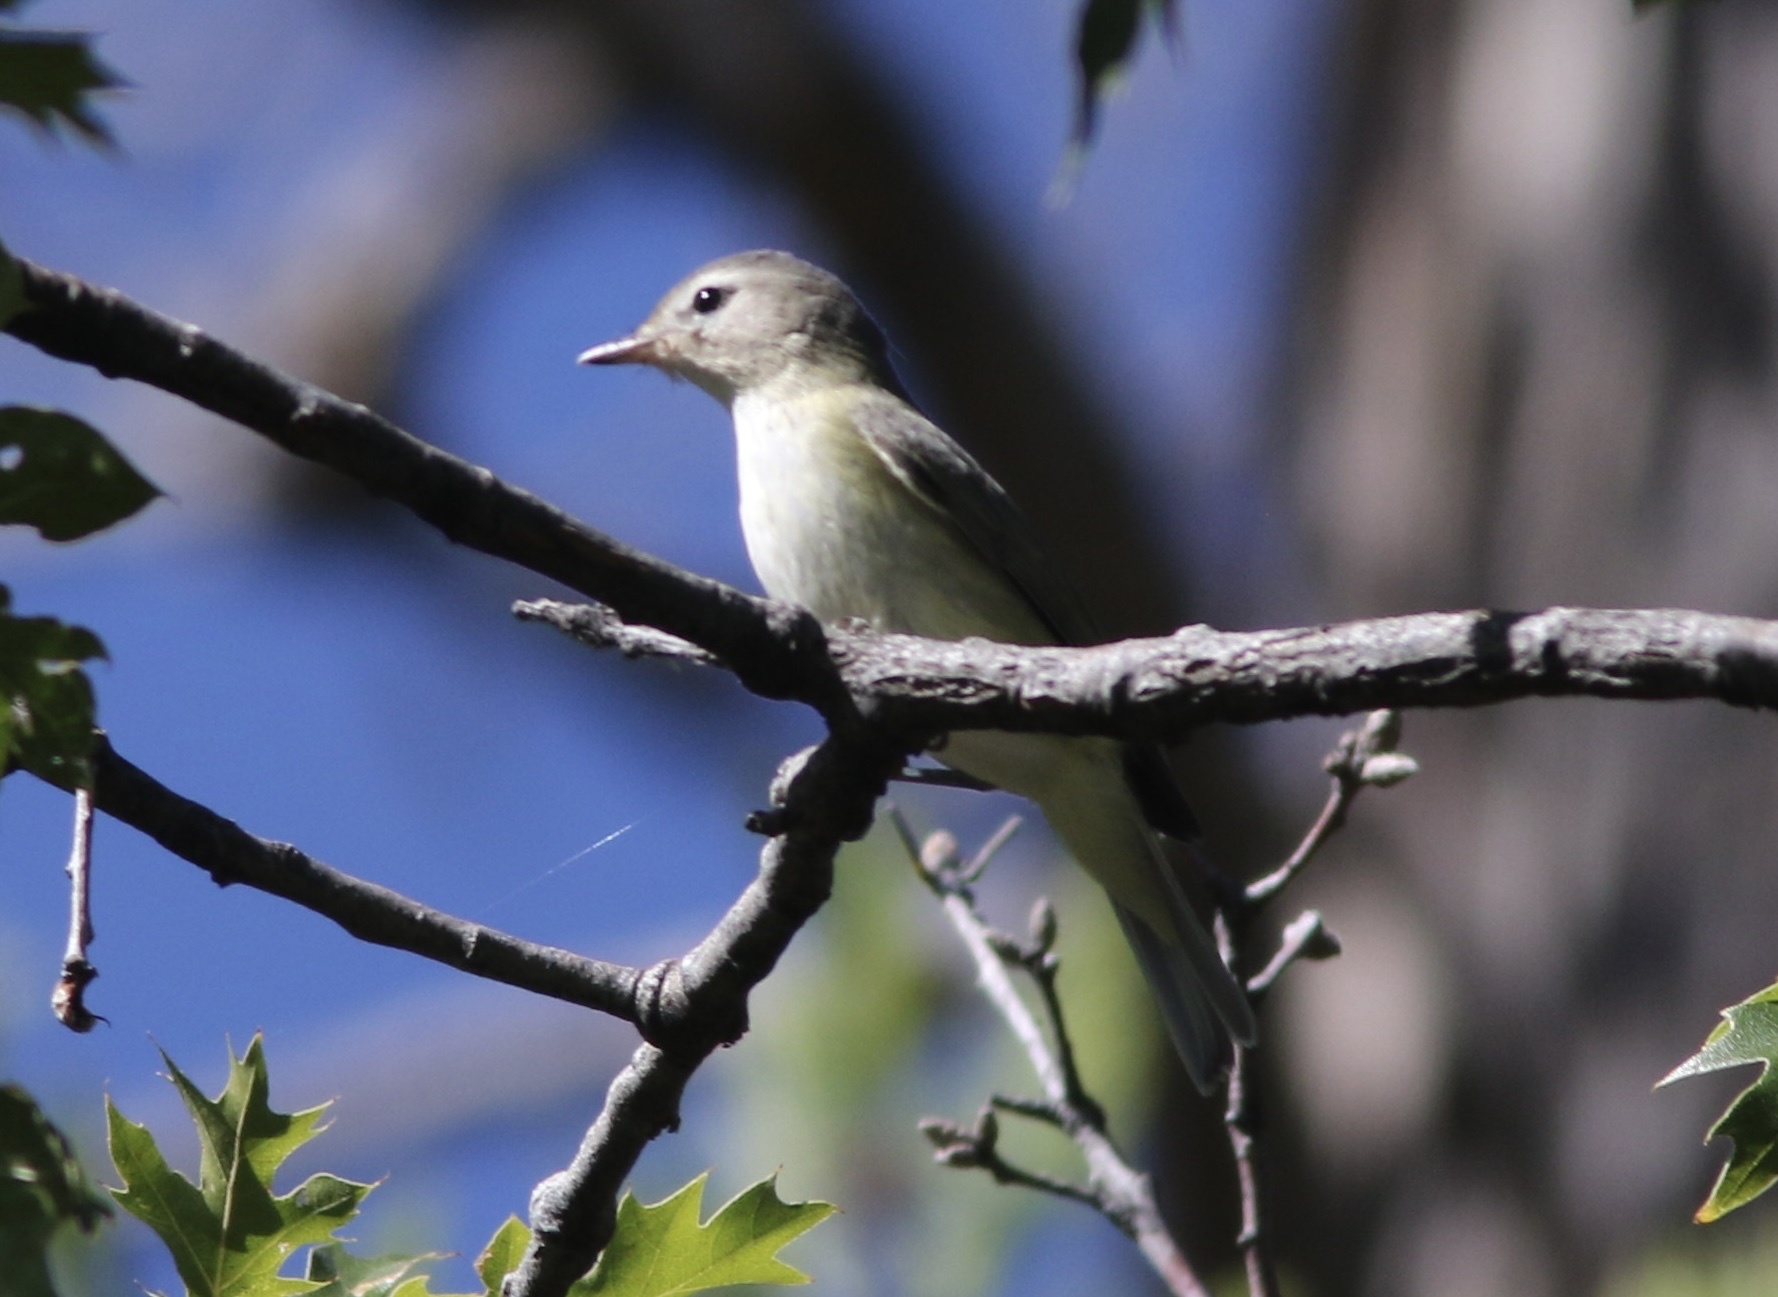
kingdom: Animalia
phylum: Chordata
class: Aves
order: Passeriformes
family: Vireonidae
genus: Vireo
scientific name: Vireo gilvus
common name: Warbling vireo
